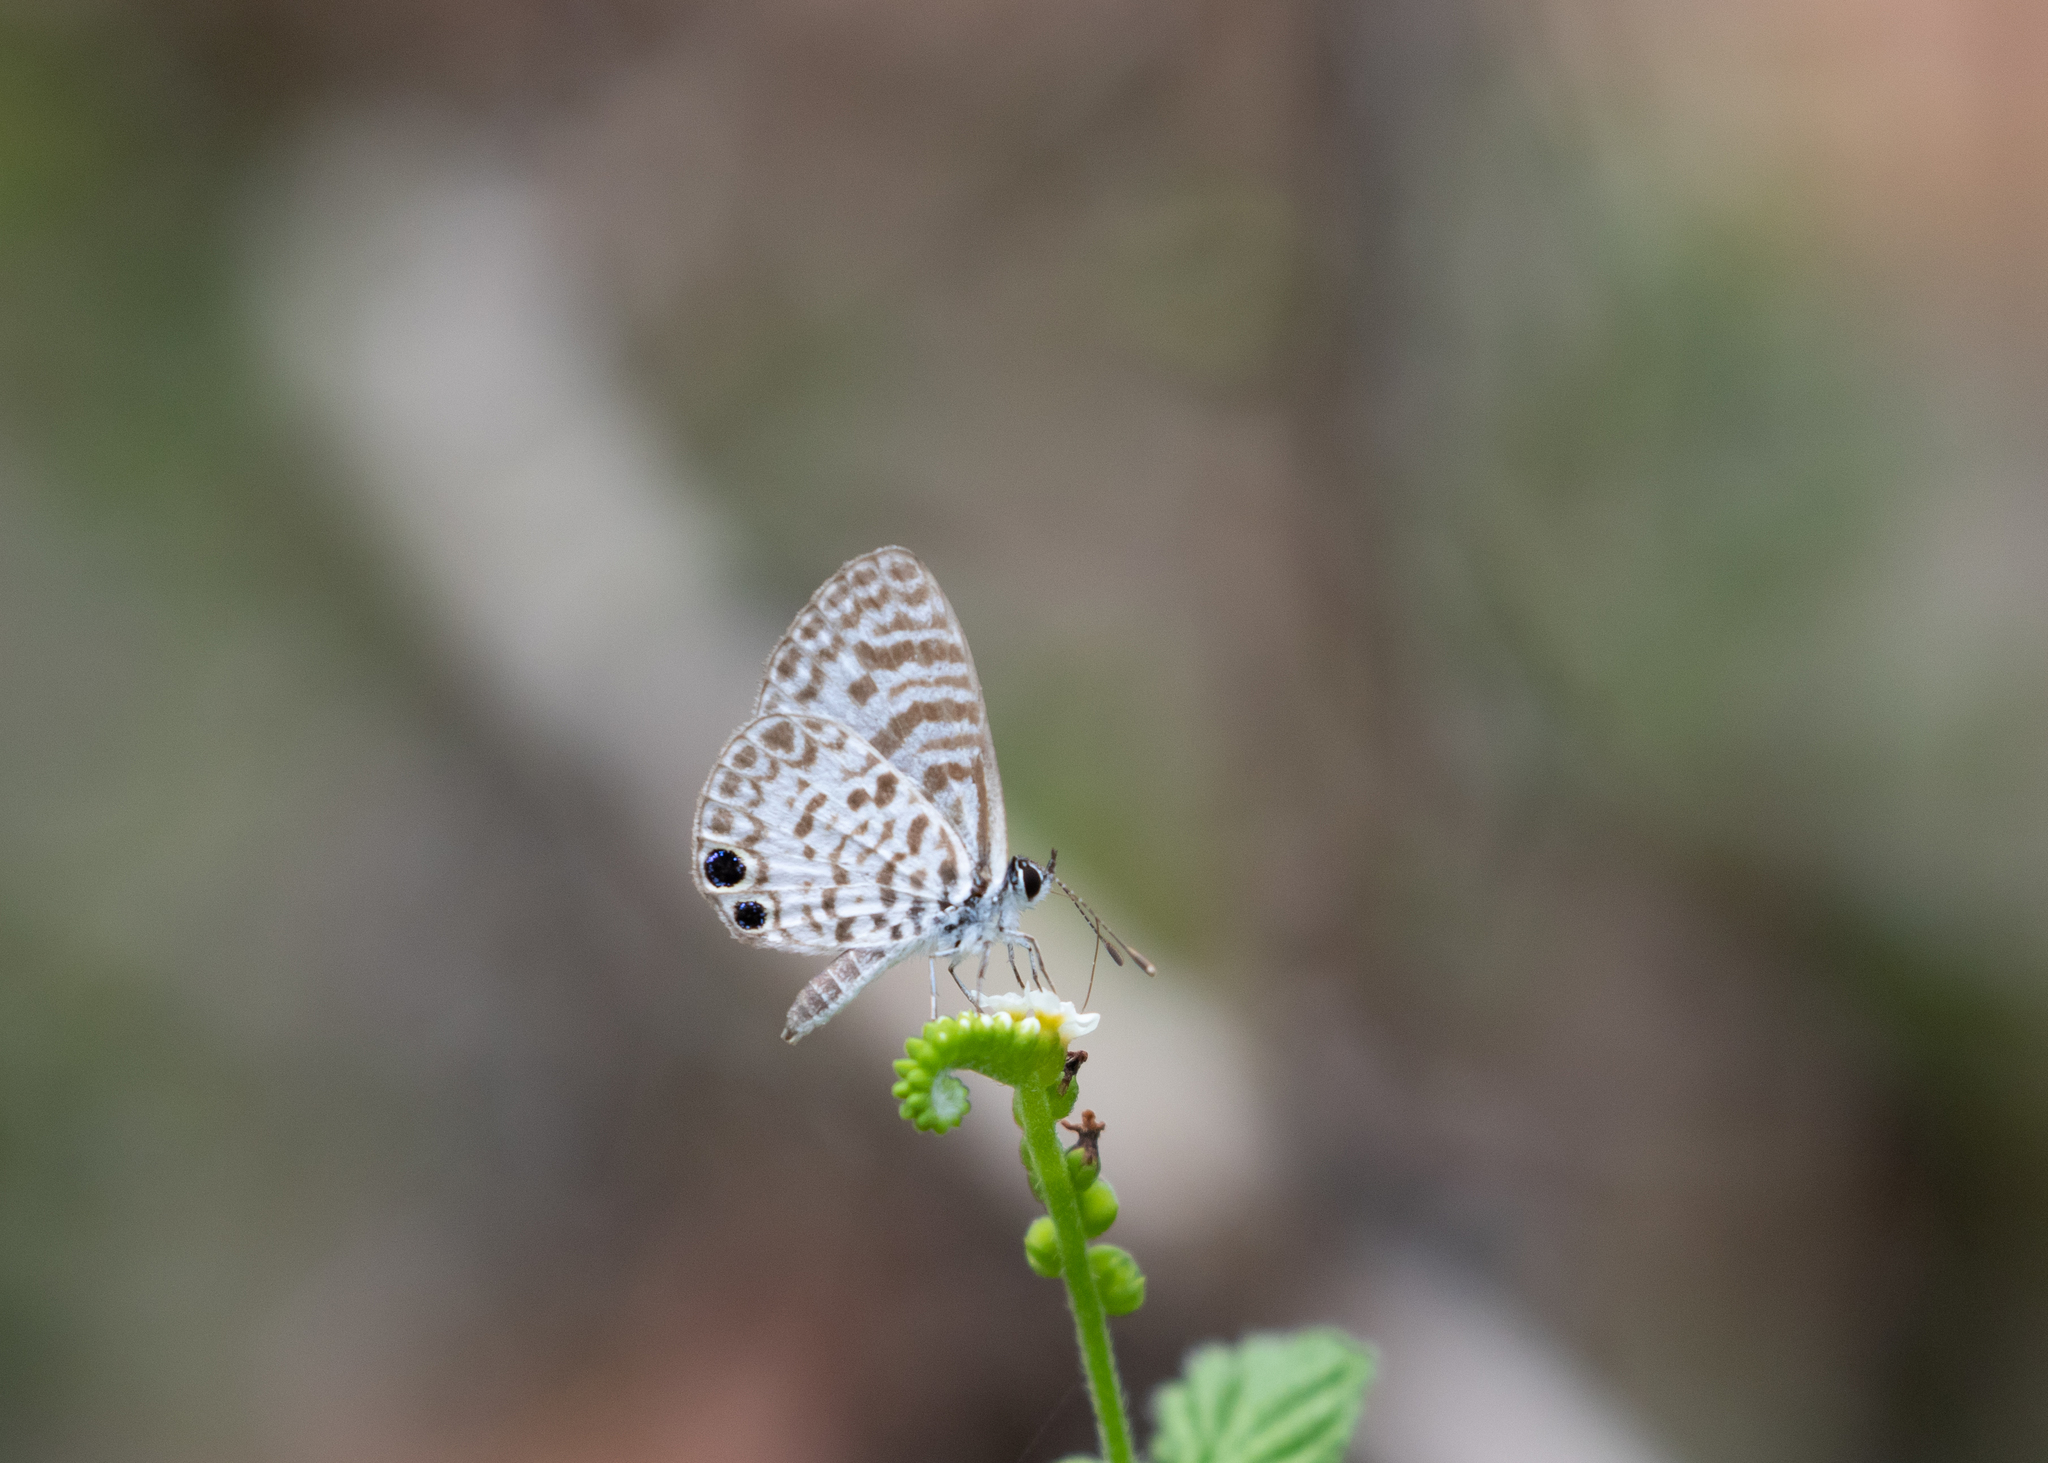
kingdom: Animalia
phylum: Arthropoda
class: Insecta
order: Lepidoptera
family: Lycaenidae
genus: Leptotes
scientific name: Leptotes cassius
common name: Cassius blue
